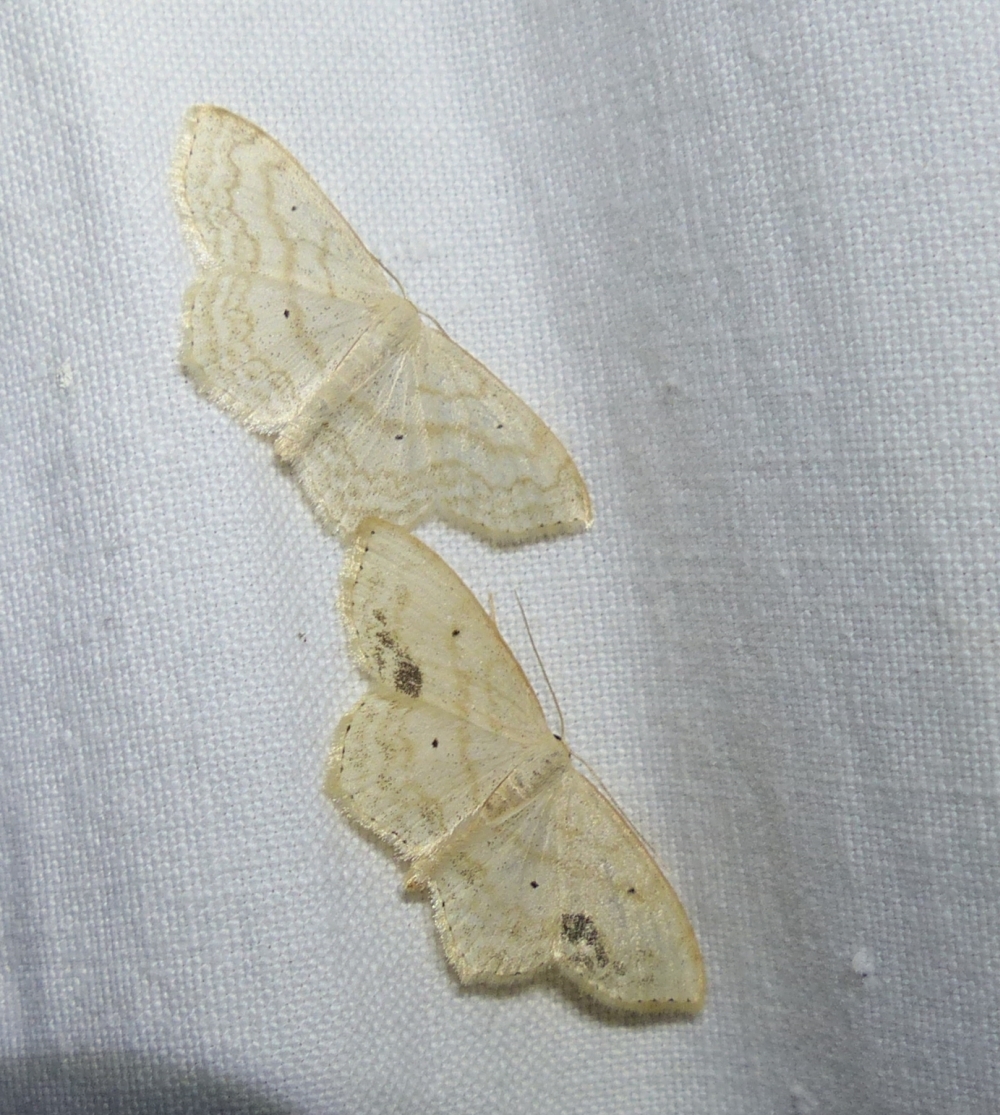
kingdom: Animalia
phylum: Arthropoda
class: Insecta
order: Lepidoptera
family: Geometridae
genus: Scopula
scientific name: Scopula limboundata
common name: Large lace border
